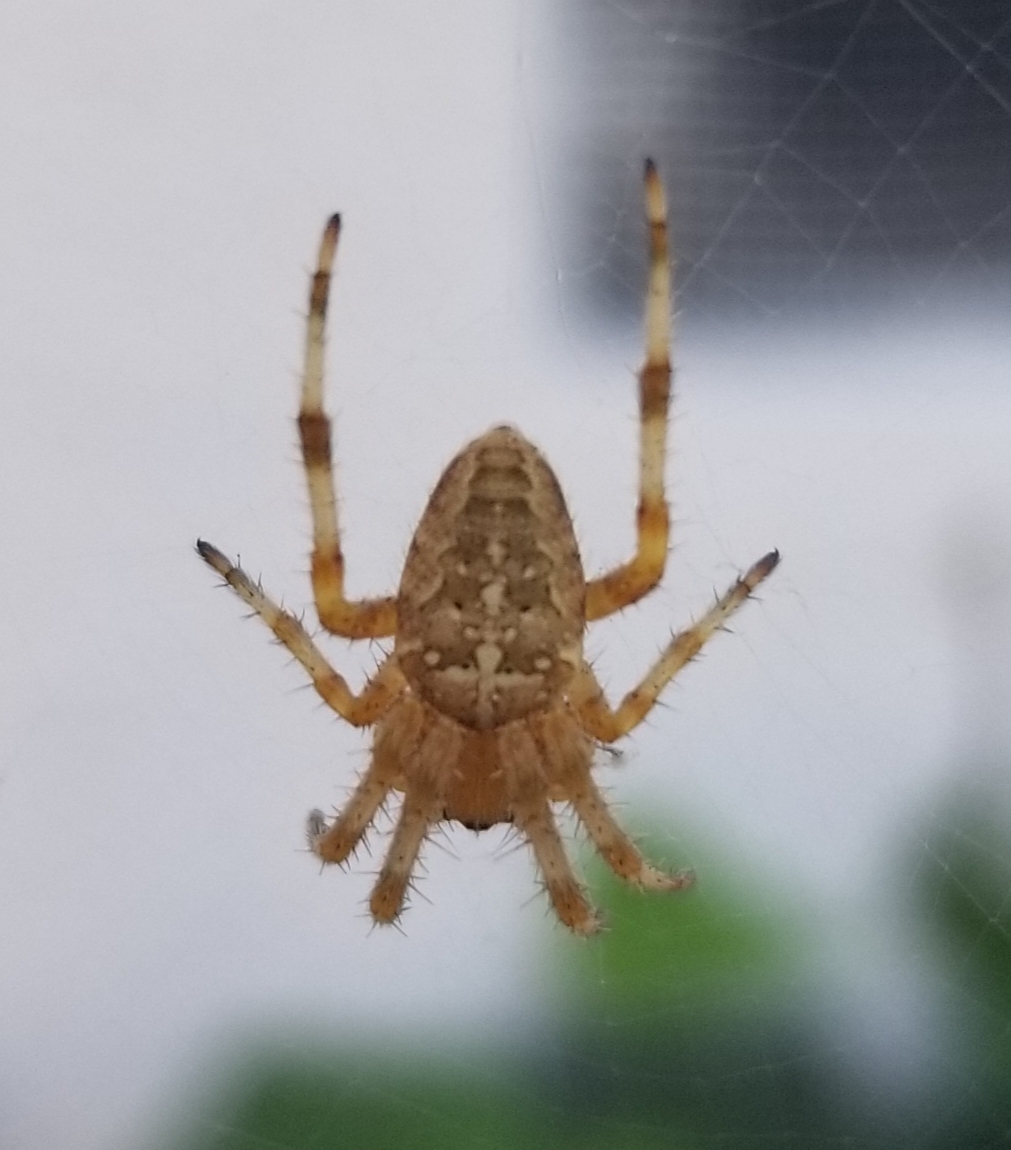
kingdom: Animalia
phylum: Arthropoda
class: Arachnida
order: Araneae
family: Araneidae
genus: Araneus
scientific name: Araneus diadematus
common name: Cross orbweaver
